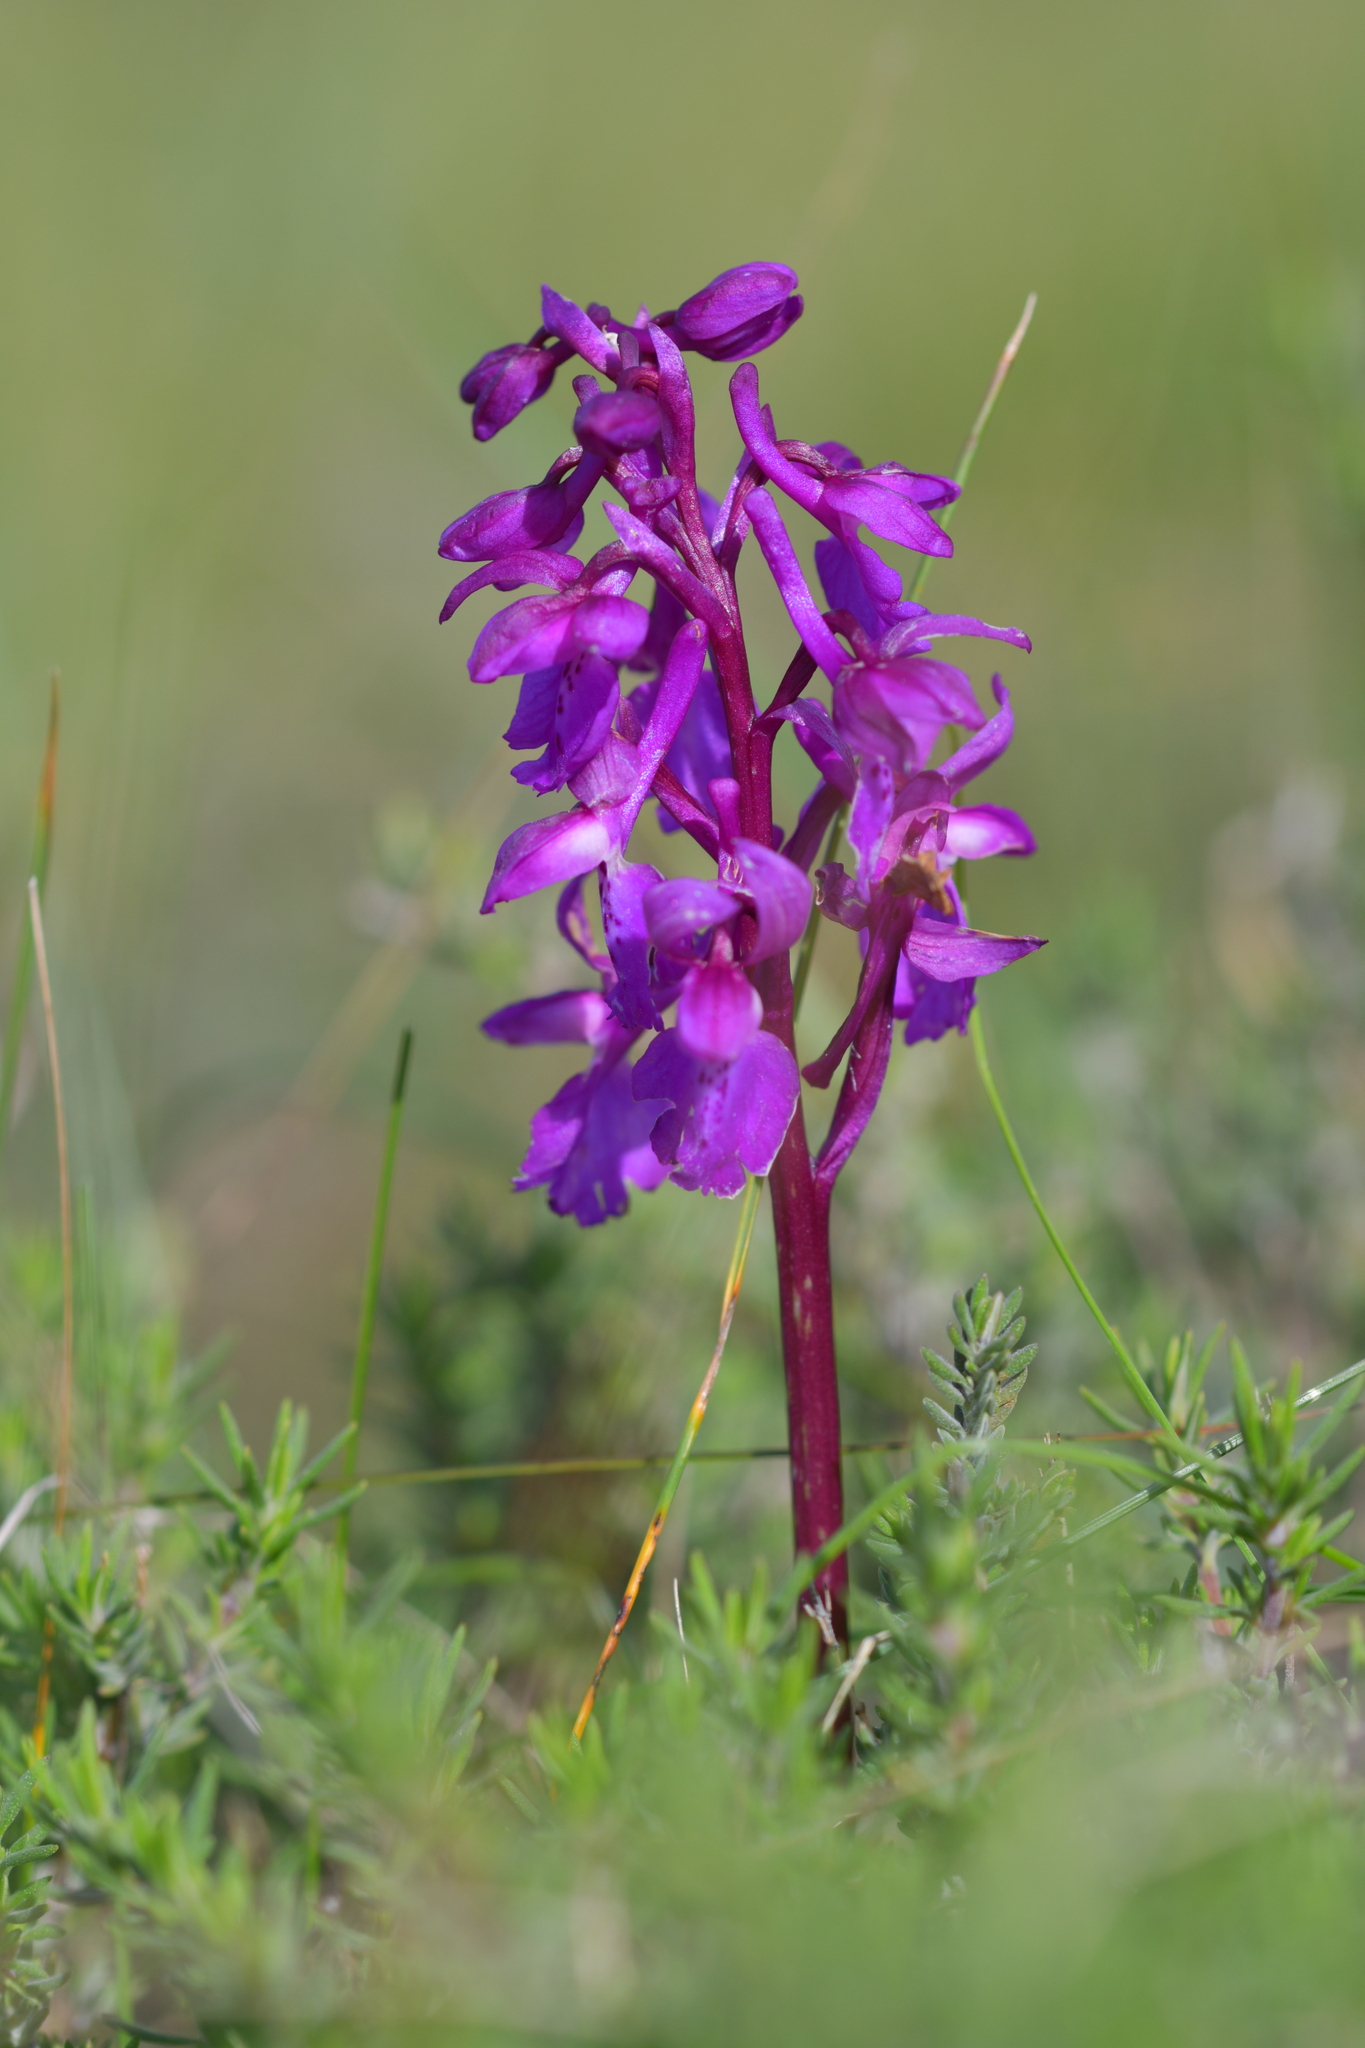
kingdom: Plantae
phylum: Tracheophyta
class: Liliopsida
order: Asparagales
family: Orchidaceae
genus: Orchis
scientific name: Orchis mascula
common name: Early-purple orchid
